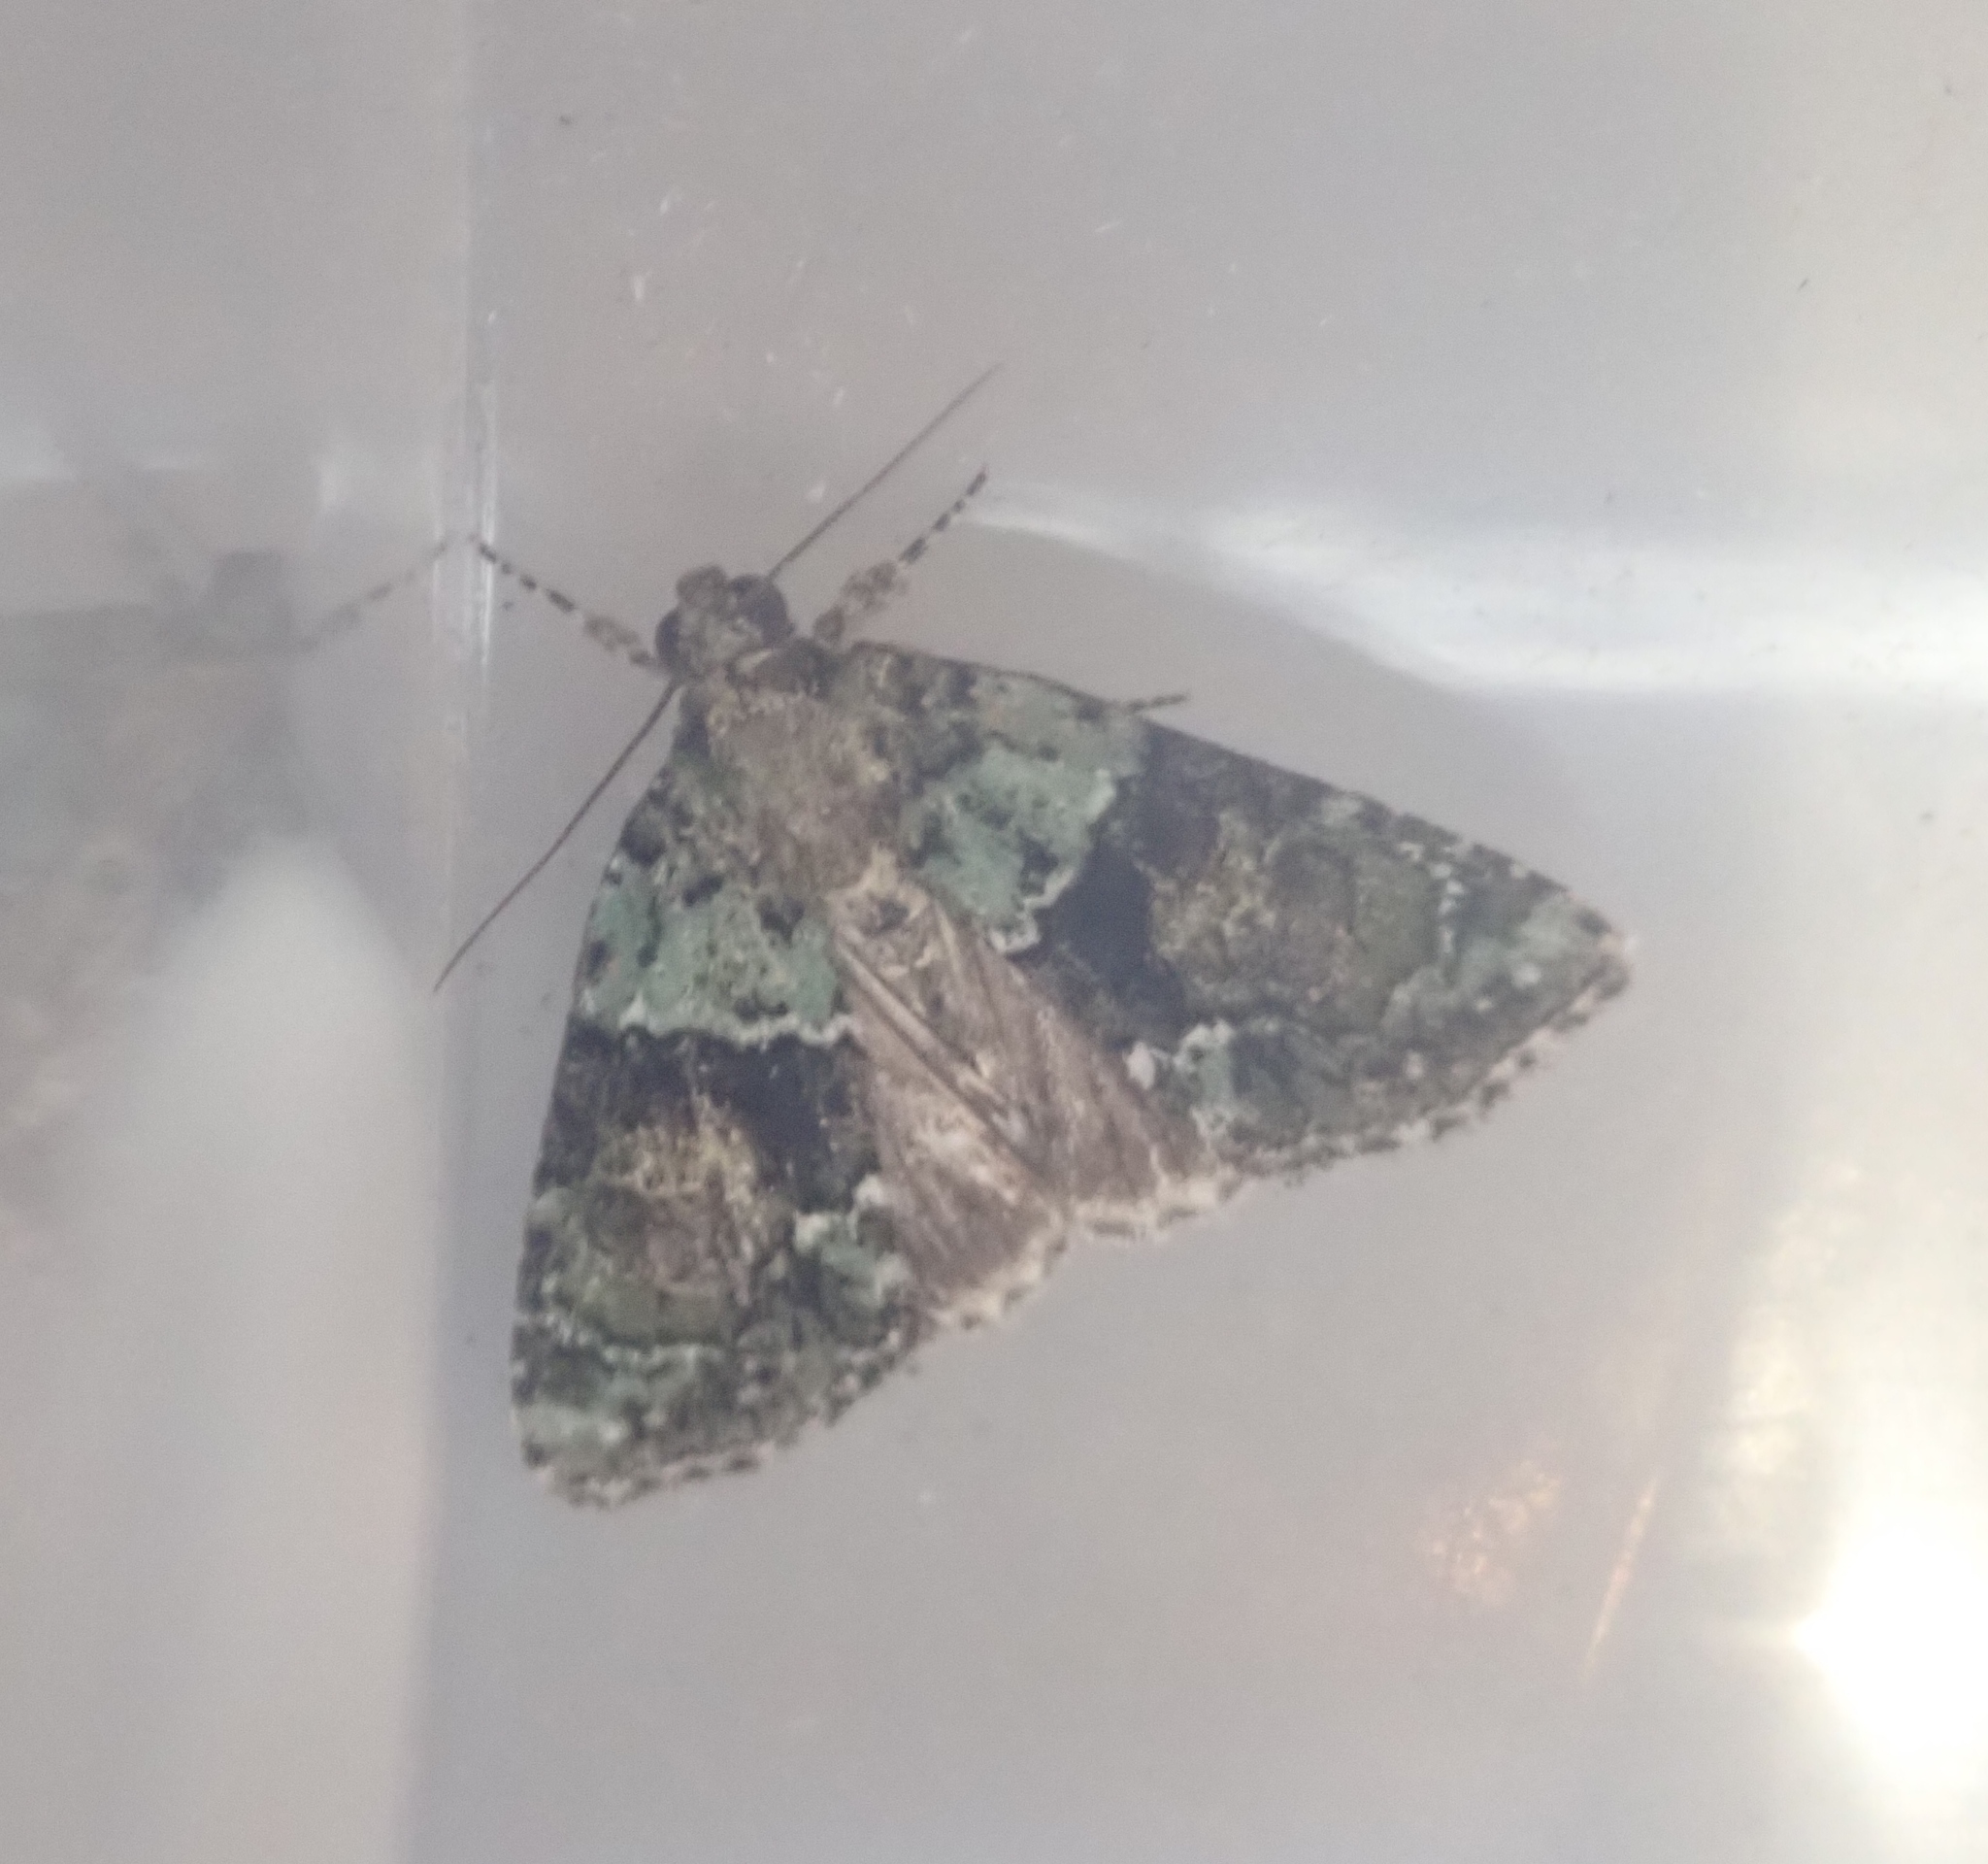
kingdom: Animalia
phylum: Arthropoda
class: Insecta
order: Lepidoptera
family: Noctuidae
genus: Cryphia
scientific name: Cryphia algae
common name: Tree-lichen beauty
